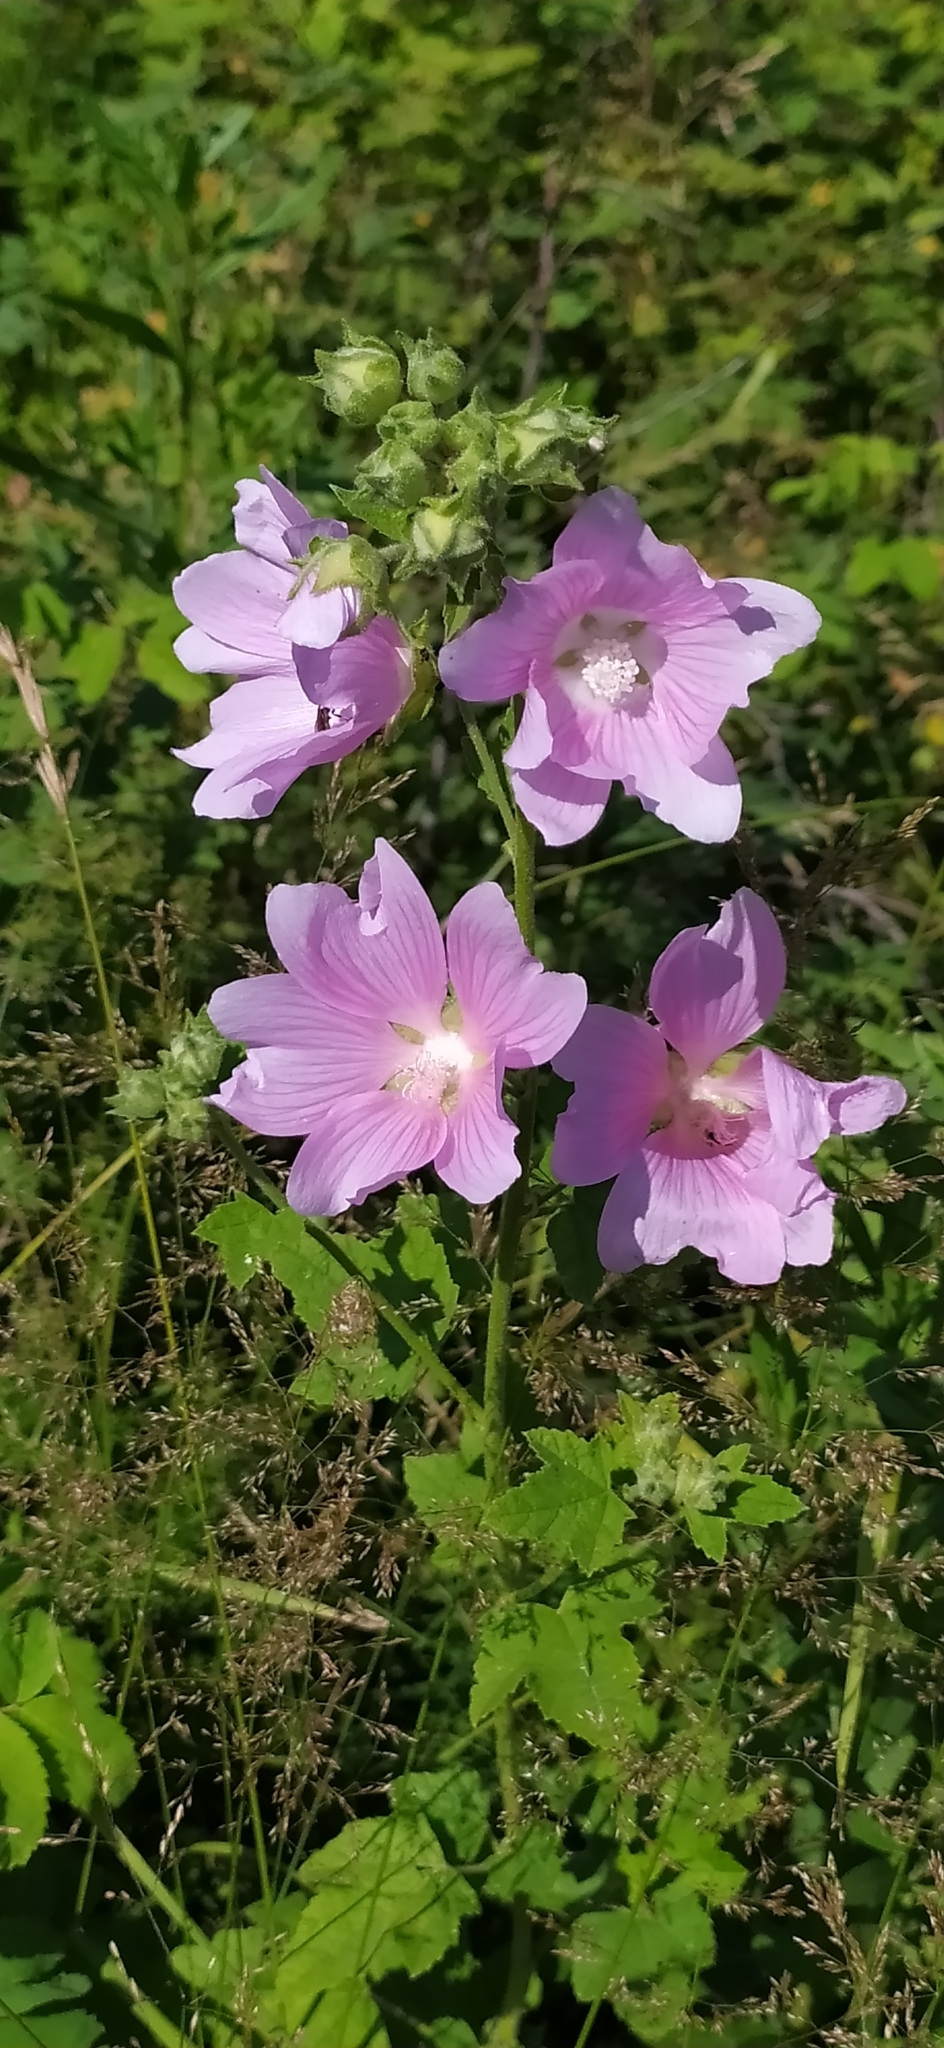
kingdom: Plantae
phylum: Tracheophyta
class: Magnoliopsida
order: Malvales
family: Malvaceae
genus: Malva
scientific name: Malva thuringiaca
